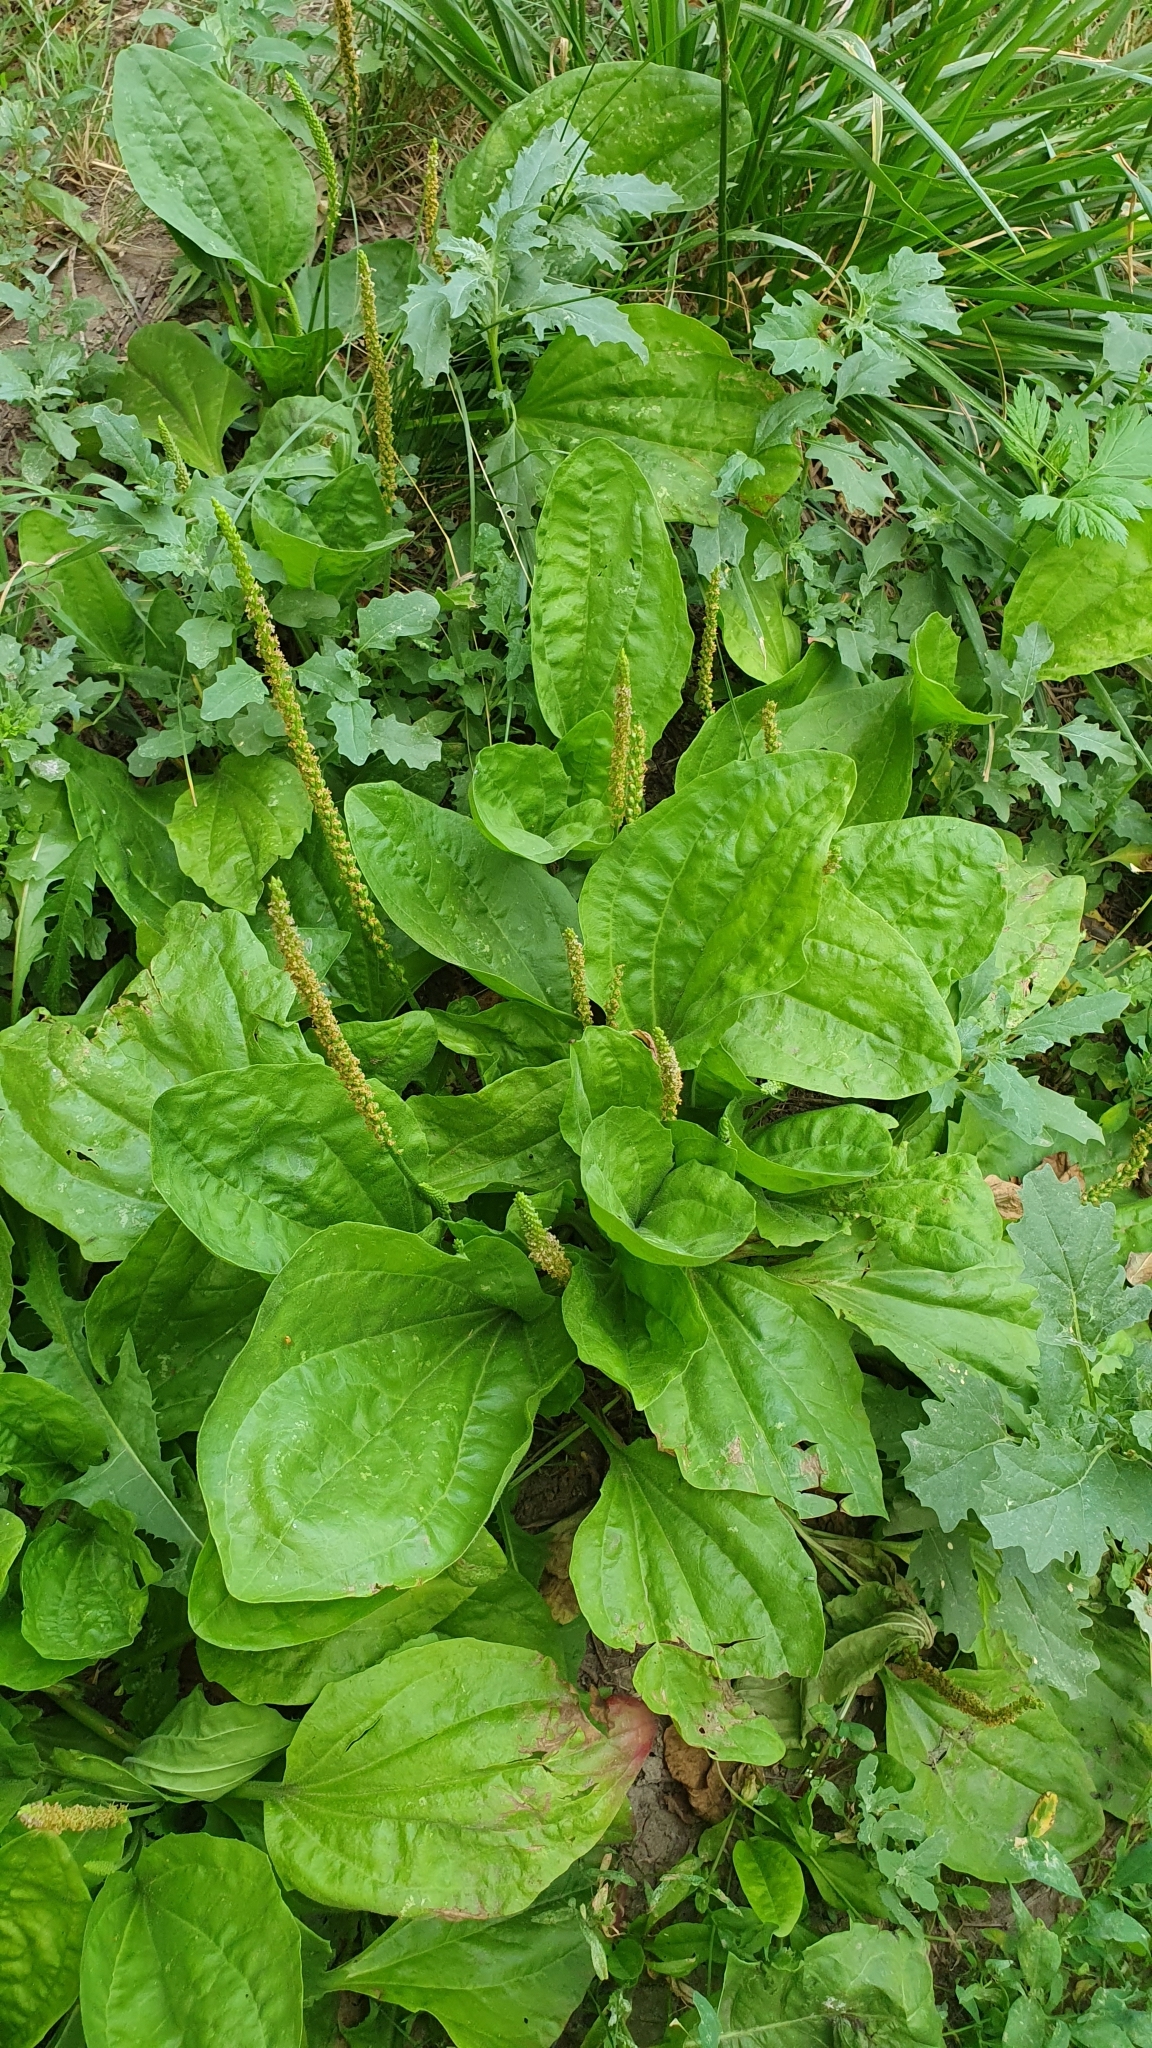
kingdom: Plantae
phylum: Tracheophyta
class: Magnoliopsida
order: Lamiales
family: Plantaginaceae
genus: Plantago
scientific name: Plantago major
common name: Common plantain
